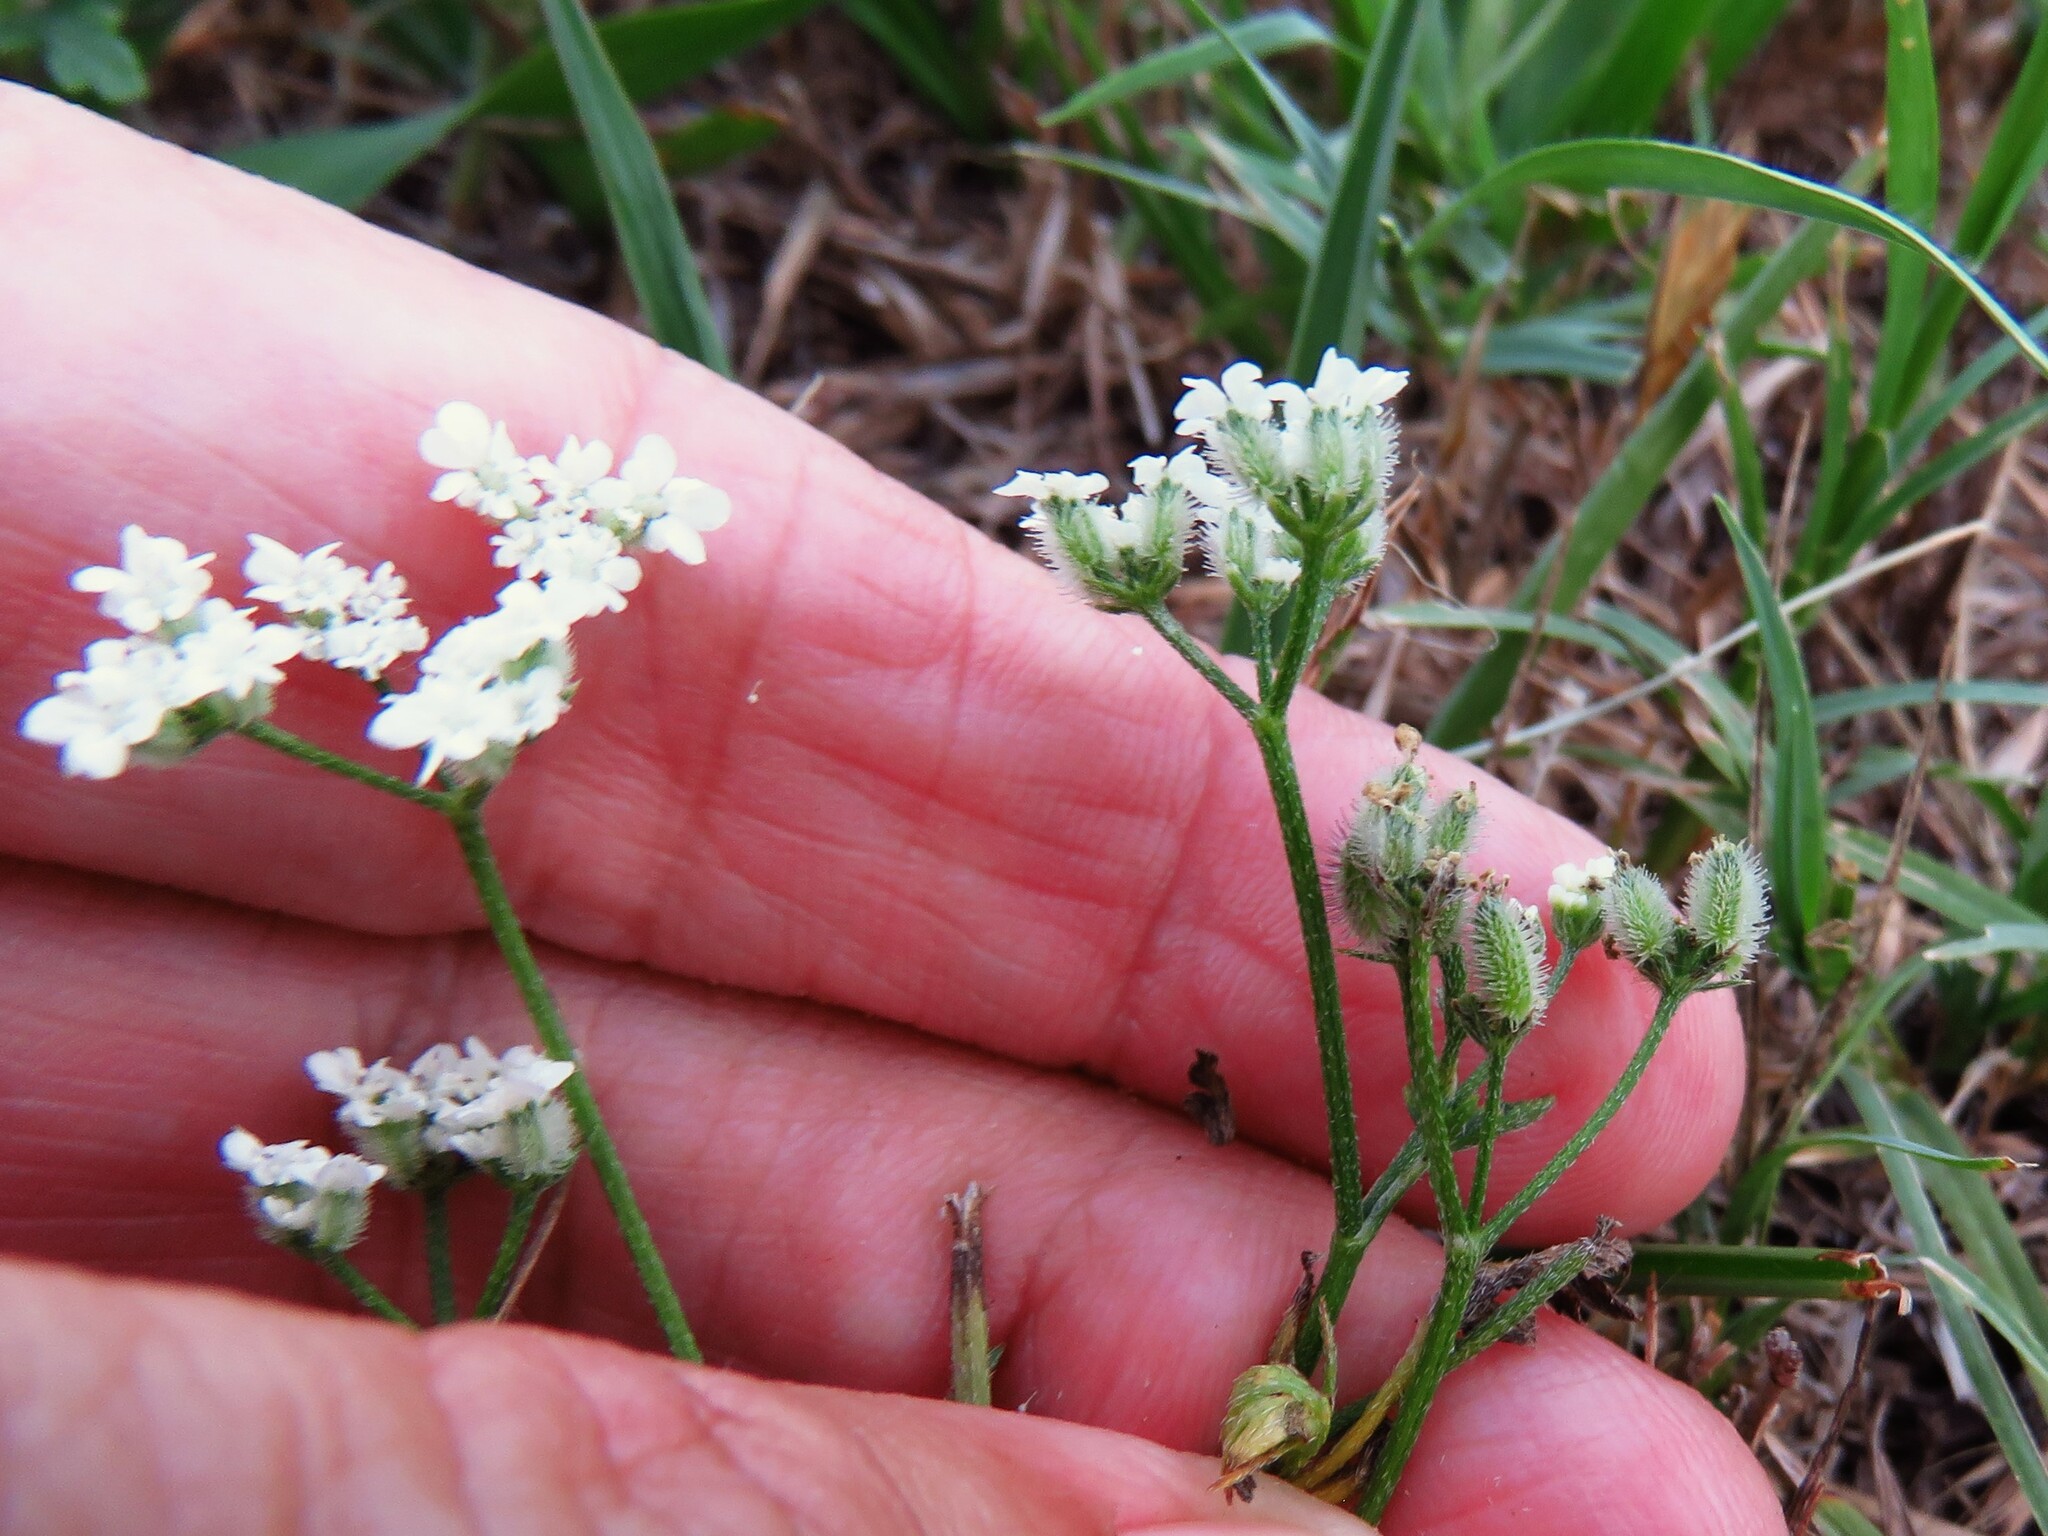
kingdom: Plantae
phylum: Tracheophyta
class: Magnoliopsida
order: Apiales
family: Apiaceae
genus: Torilis
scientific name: Torilis arvensis
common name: Spreading hedge-parsley
